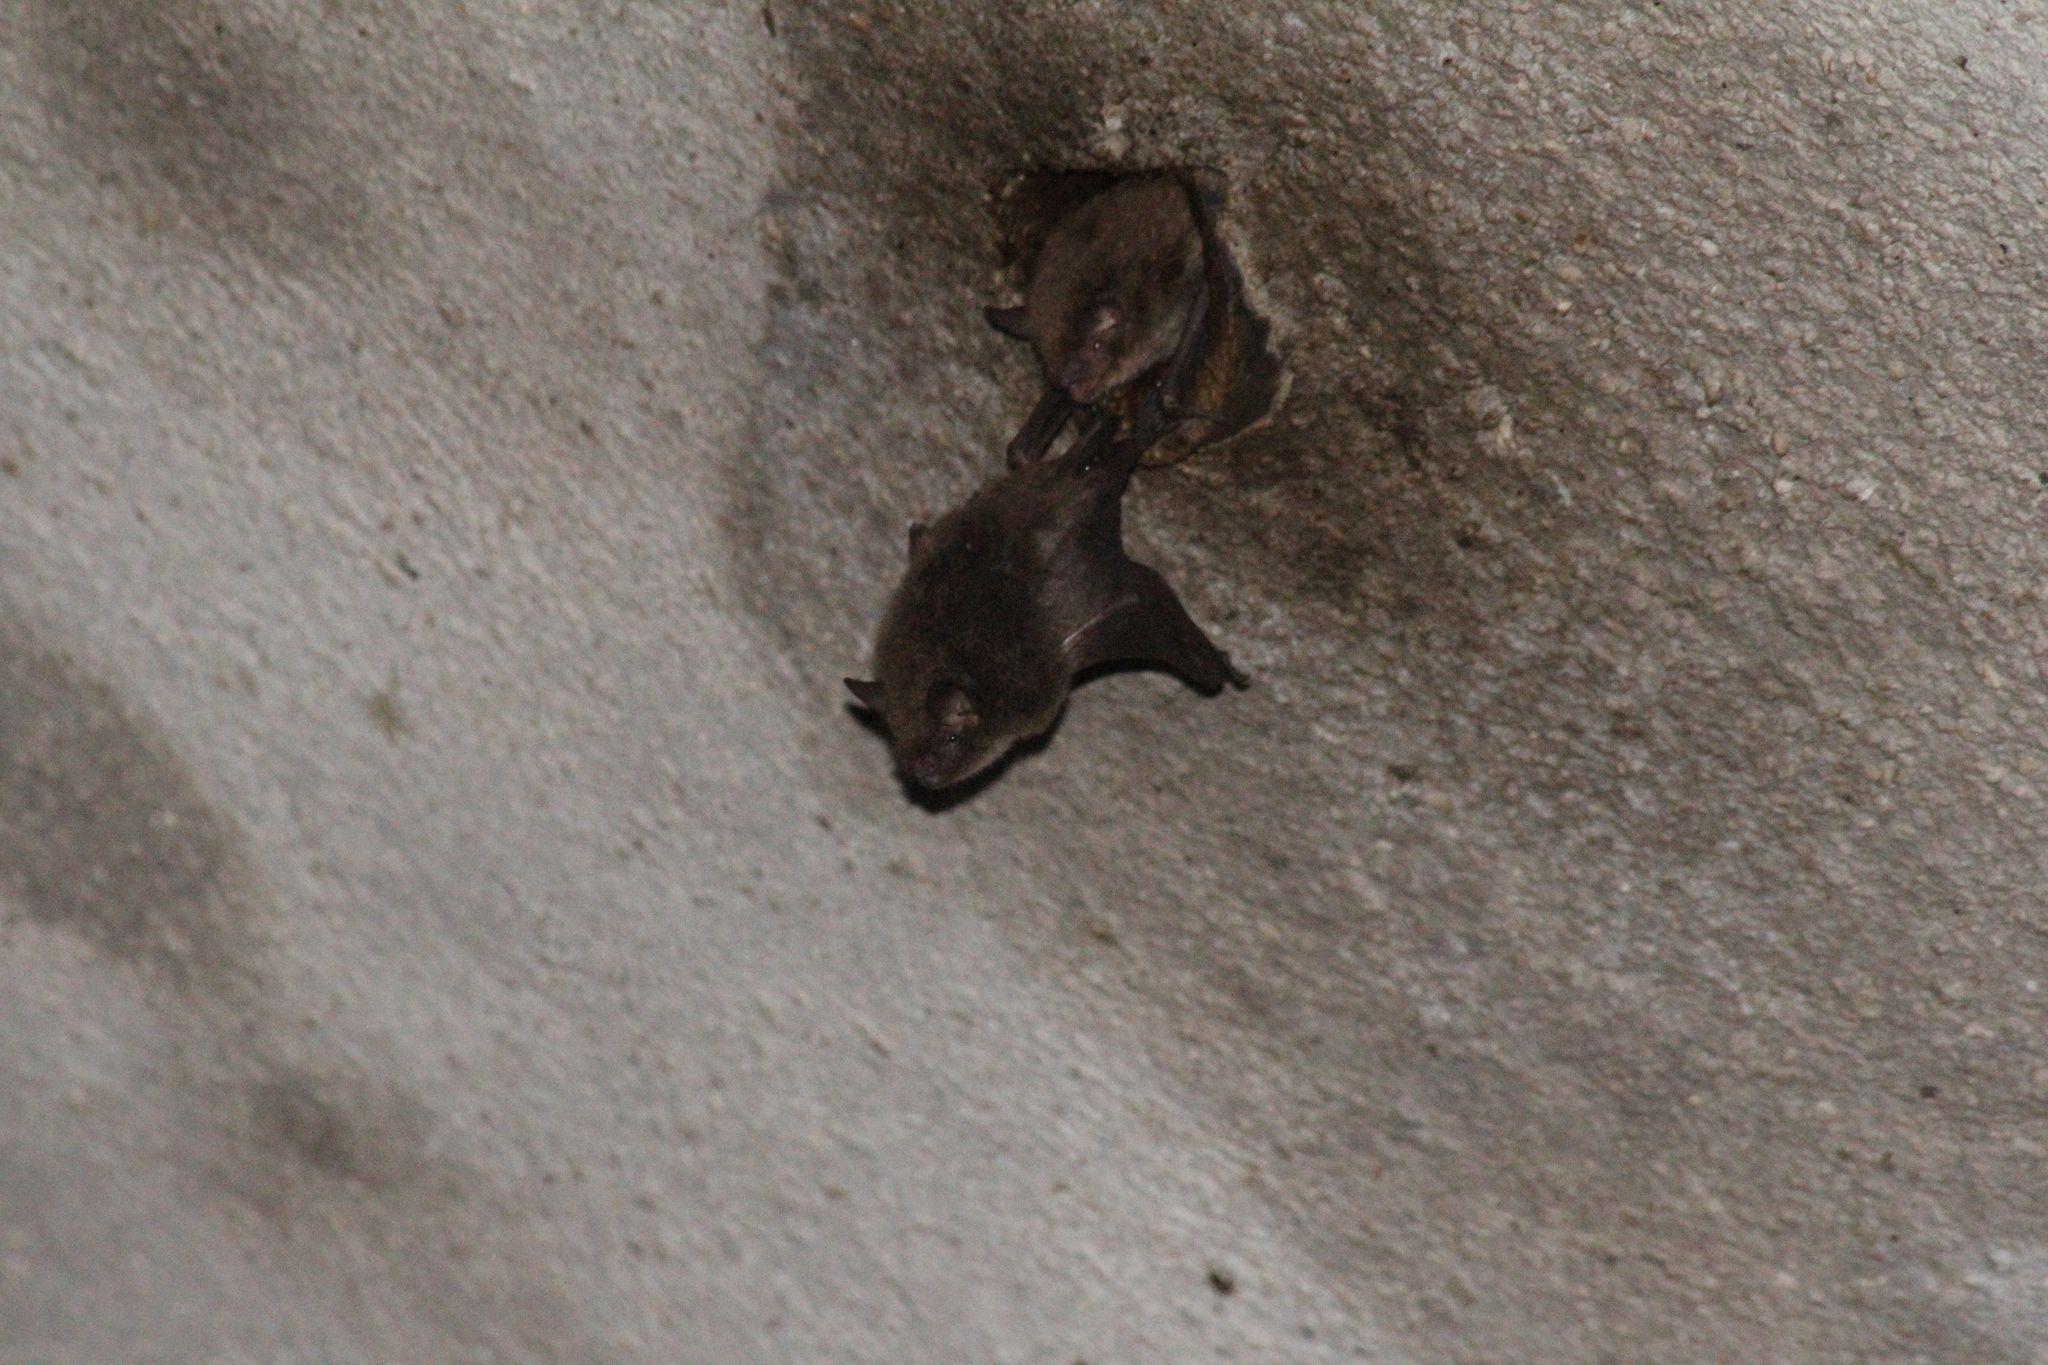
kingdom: Animalia
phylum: Chordata
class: Mammalia
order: Chiroptera
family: Vespertilionidae
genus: Myotis
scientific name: Myotis daubentonii
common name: Daubenton's myotis
